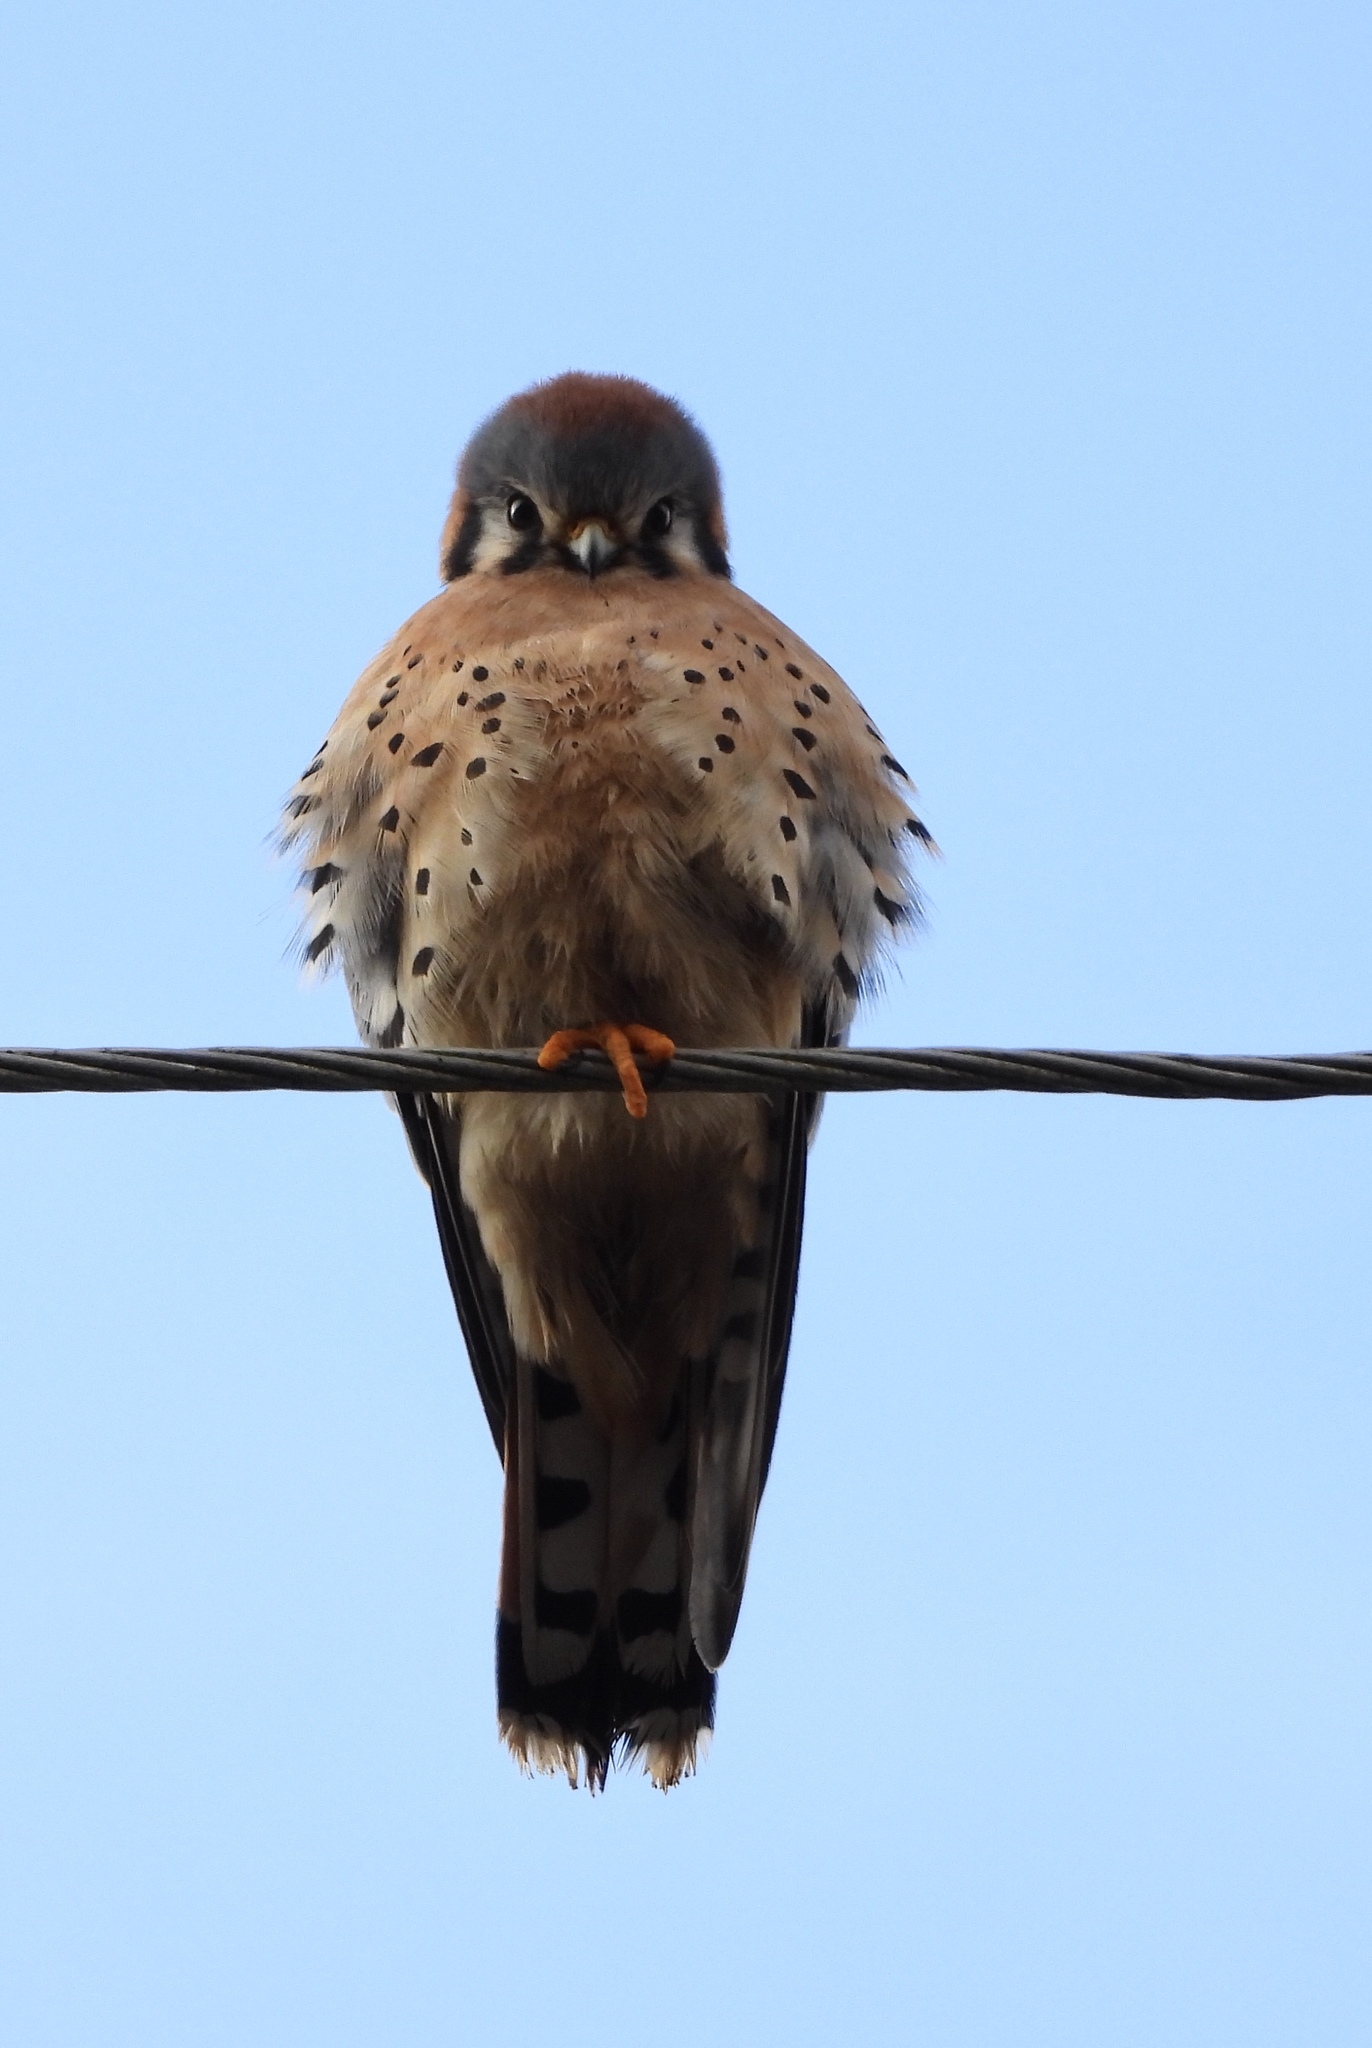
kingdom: Animalia
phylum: Chordata
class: Aves
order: Falconiformes
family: Falconidae
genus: Falco
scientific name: Falco sparverius
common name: American kestrel
